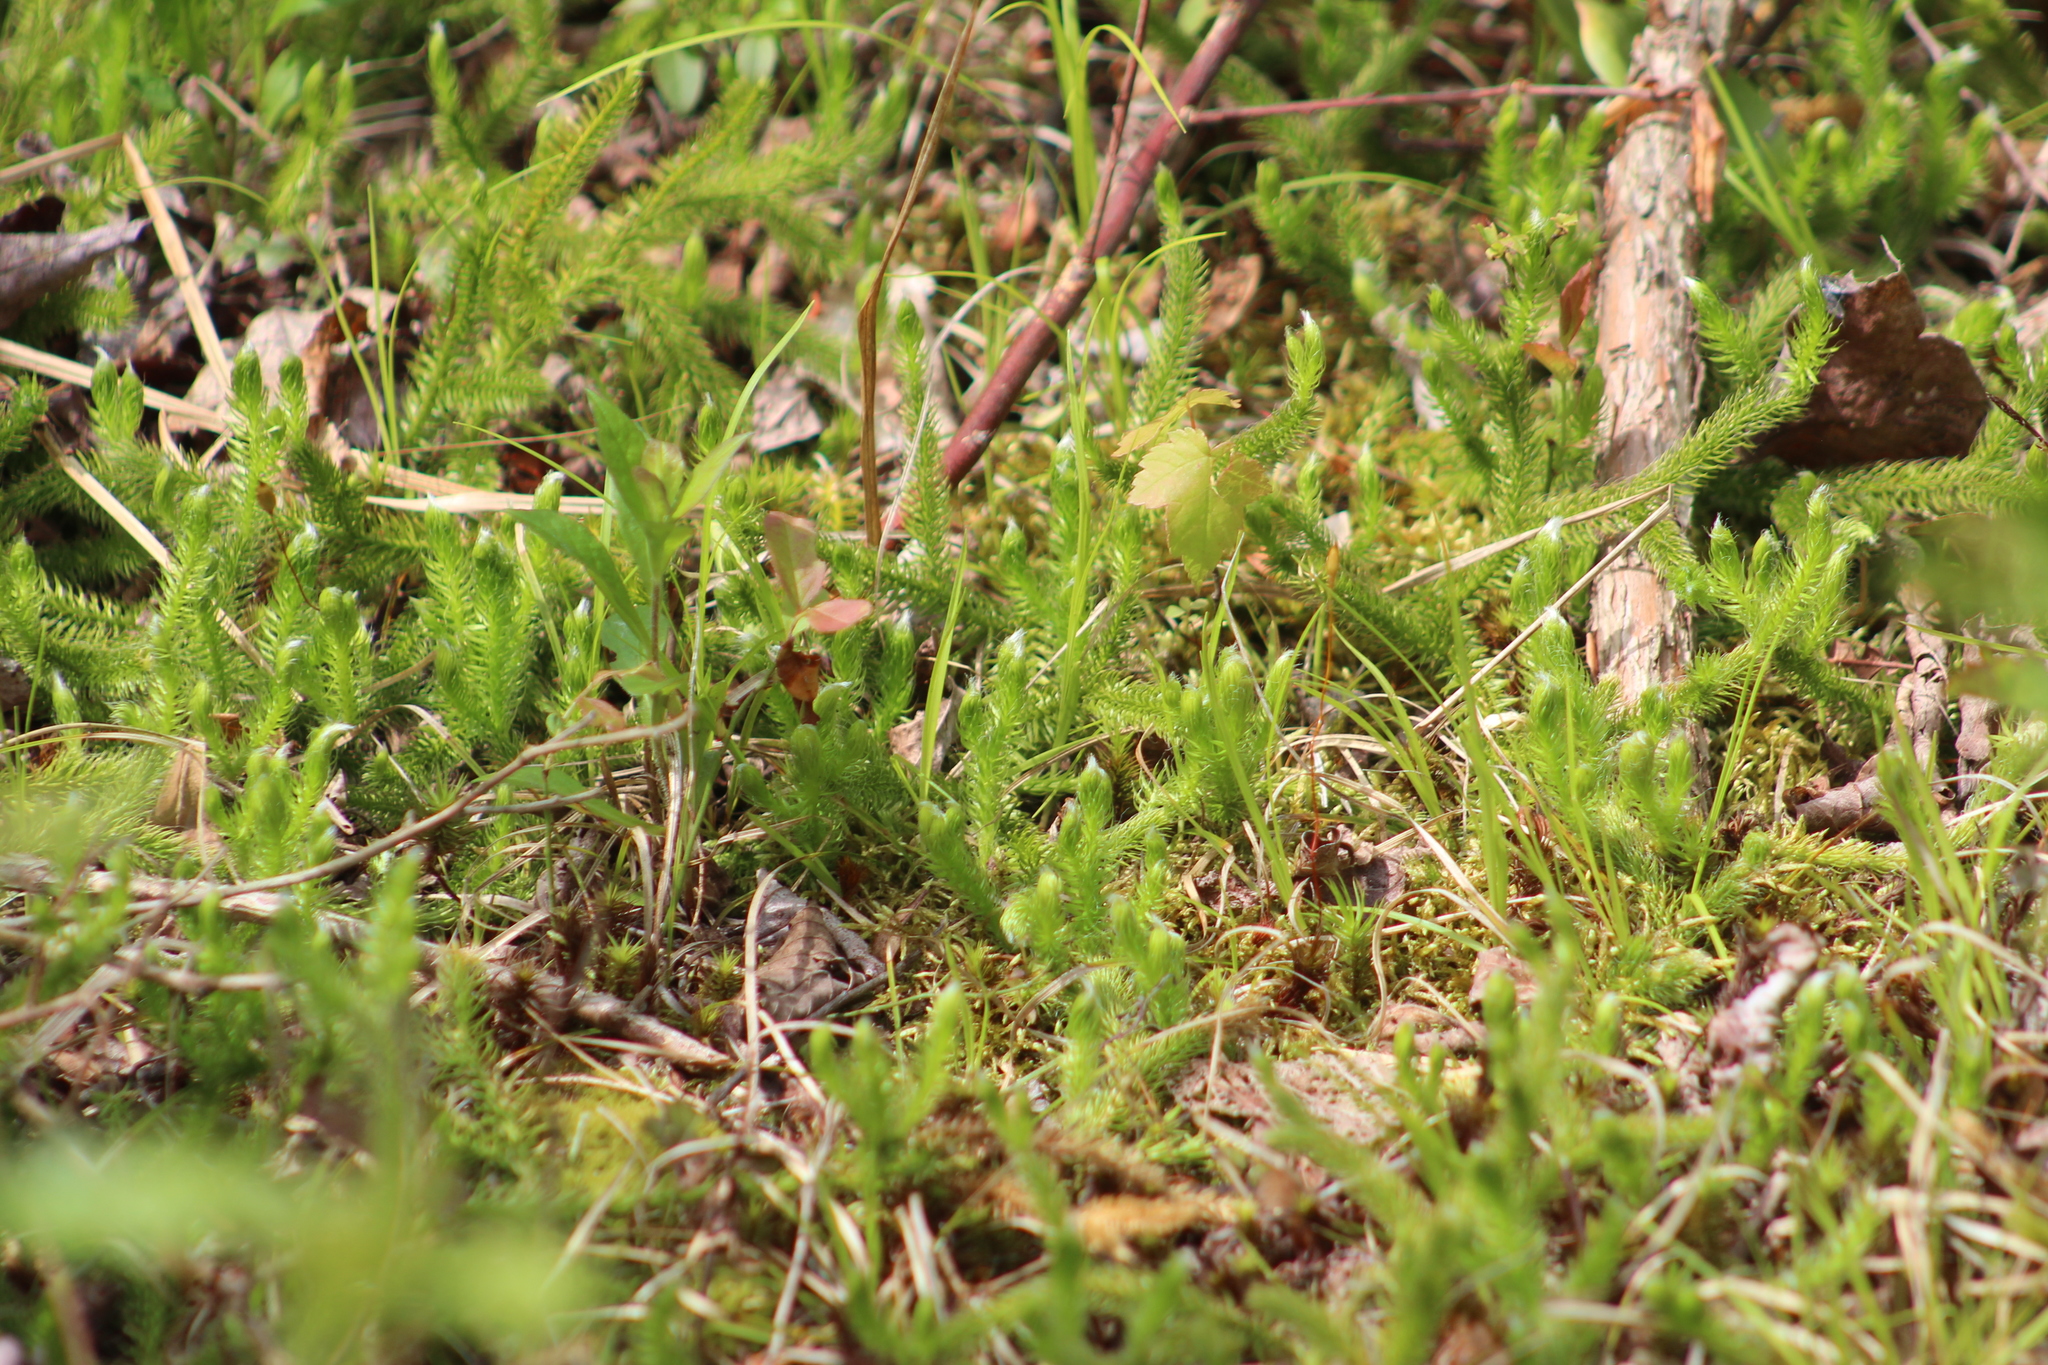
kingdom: Plantae
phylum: Tracheophyta
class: Lycopodiopsida
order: Lycopodiales
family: Lycopodiaceae
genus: Lycopodium
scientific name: Lycopodium clavatum
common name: Stag's-horn clubmoss
